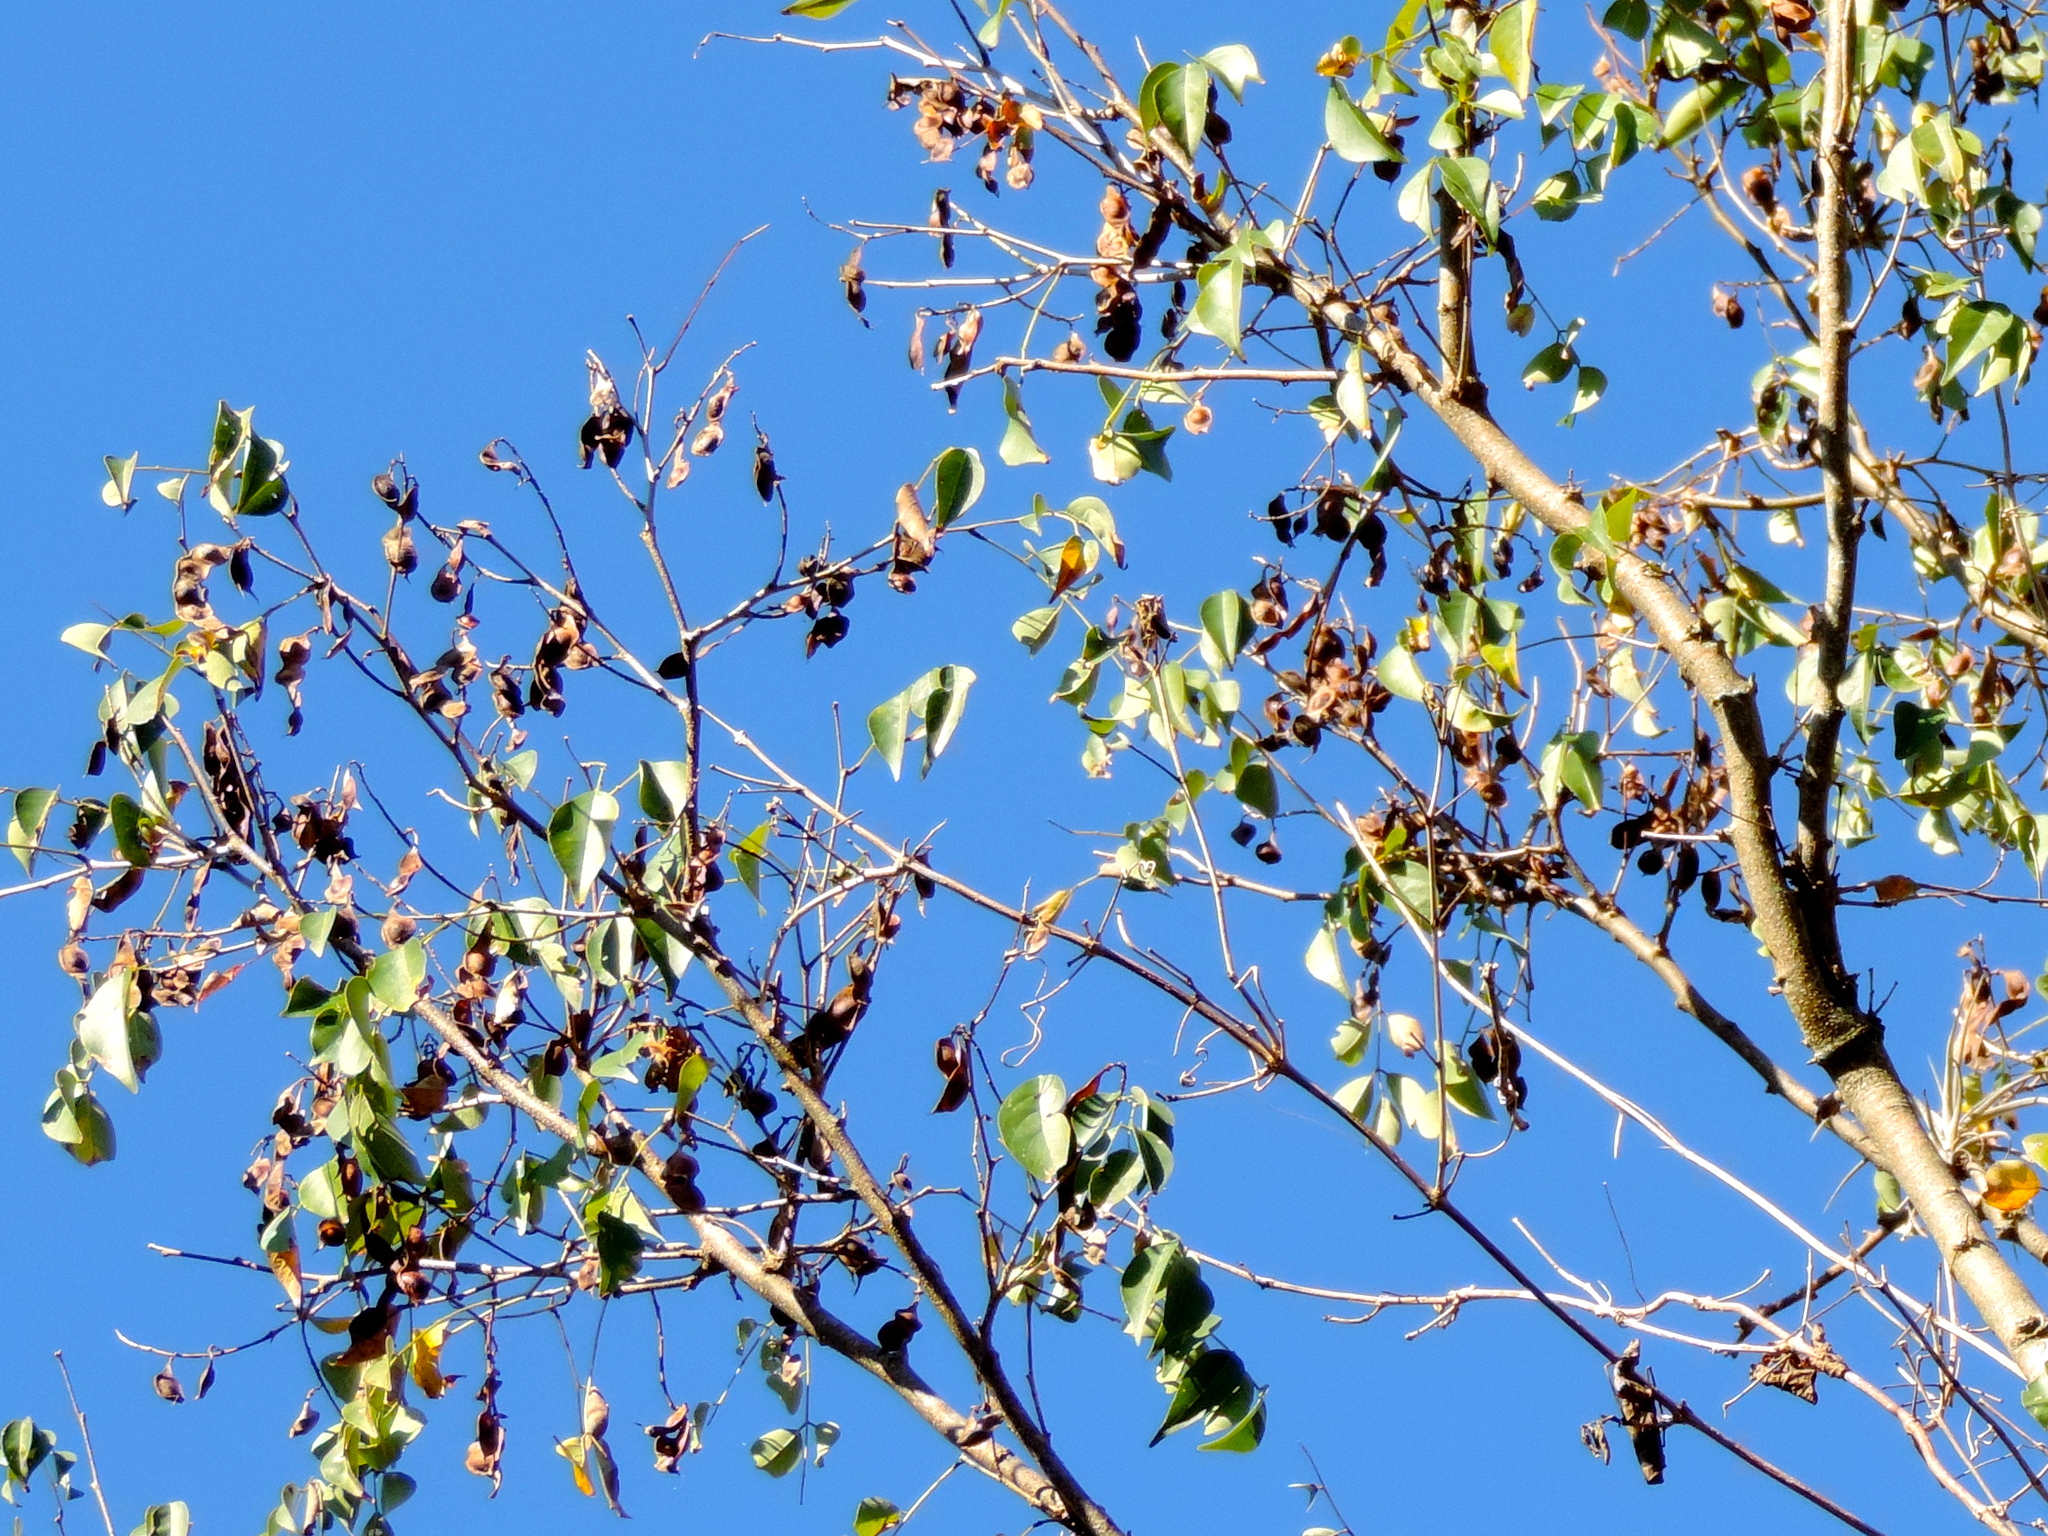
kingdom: Plantae
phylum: Tracheophyta
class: Magnoliopsida
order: Fabales
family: Fabaceae
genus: Lonchocarpus
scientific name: Lonchocarpus lanceolatus
